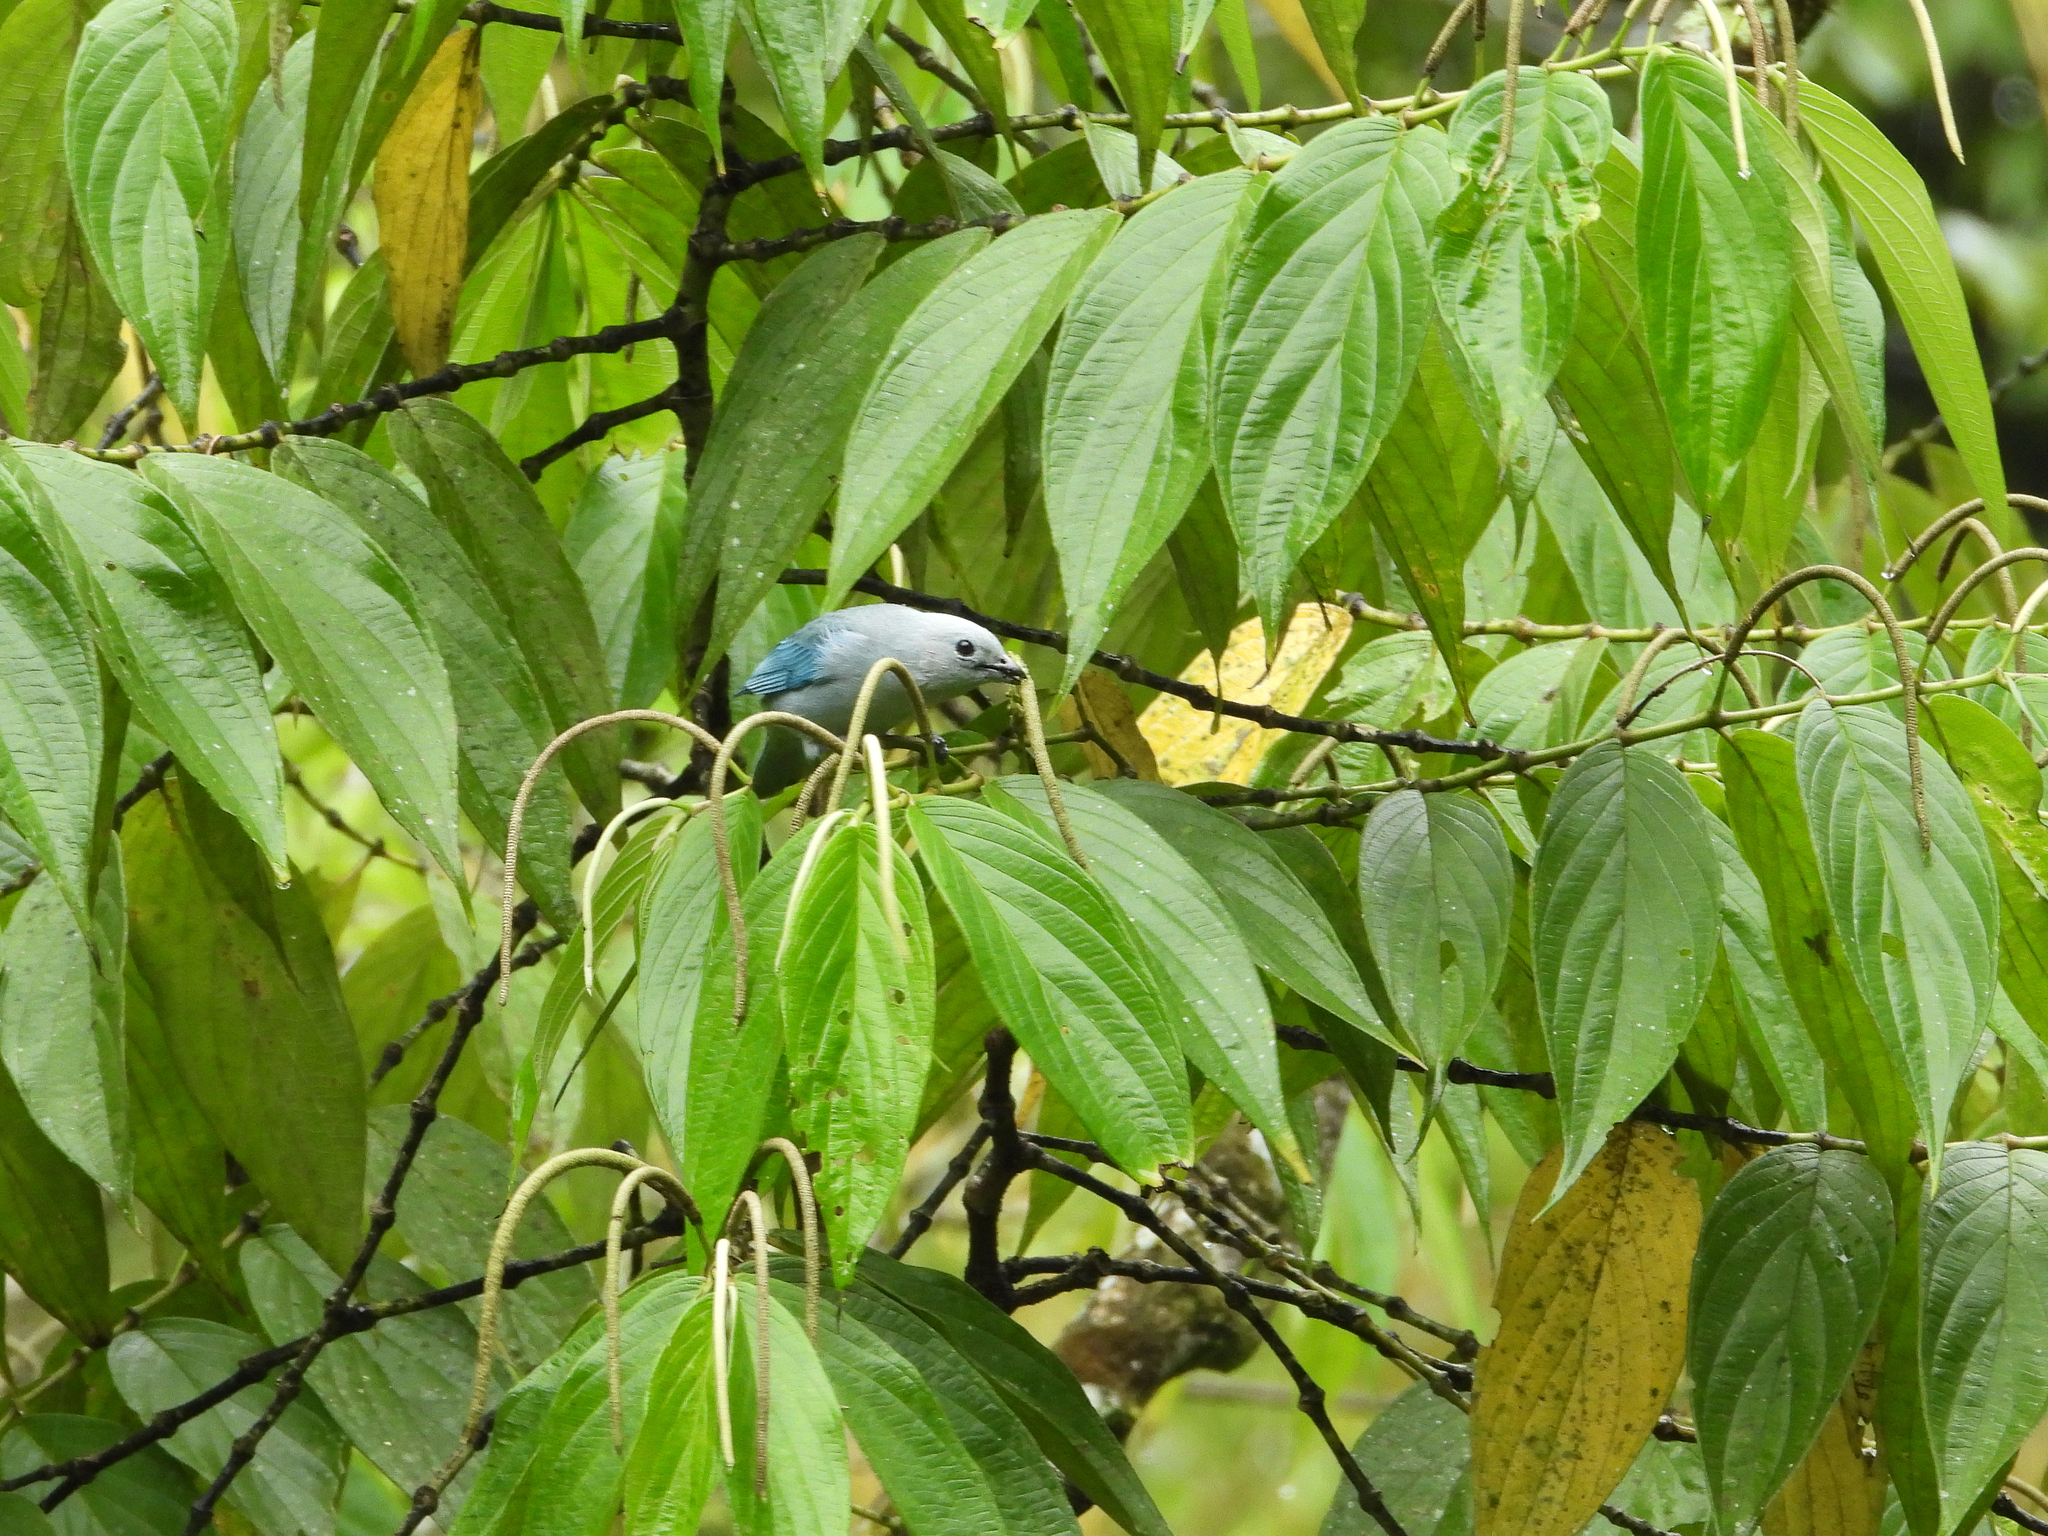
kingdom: Animalia
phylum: Chordata
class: Aves
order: Passeriformes
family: Thraupidae
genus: Thraupis
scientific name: Thraupis episcopus
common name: Blue-grey tanager
